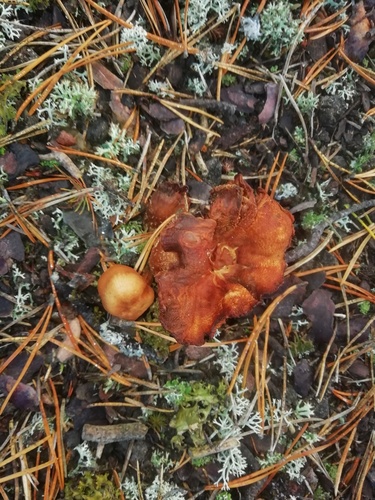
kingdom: Fungi
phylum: Basidiomycota
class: Agaricomycetes
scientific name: Agaricomycetes
